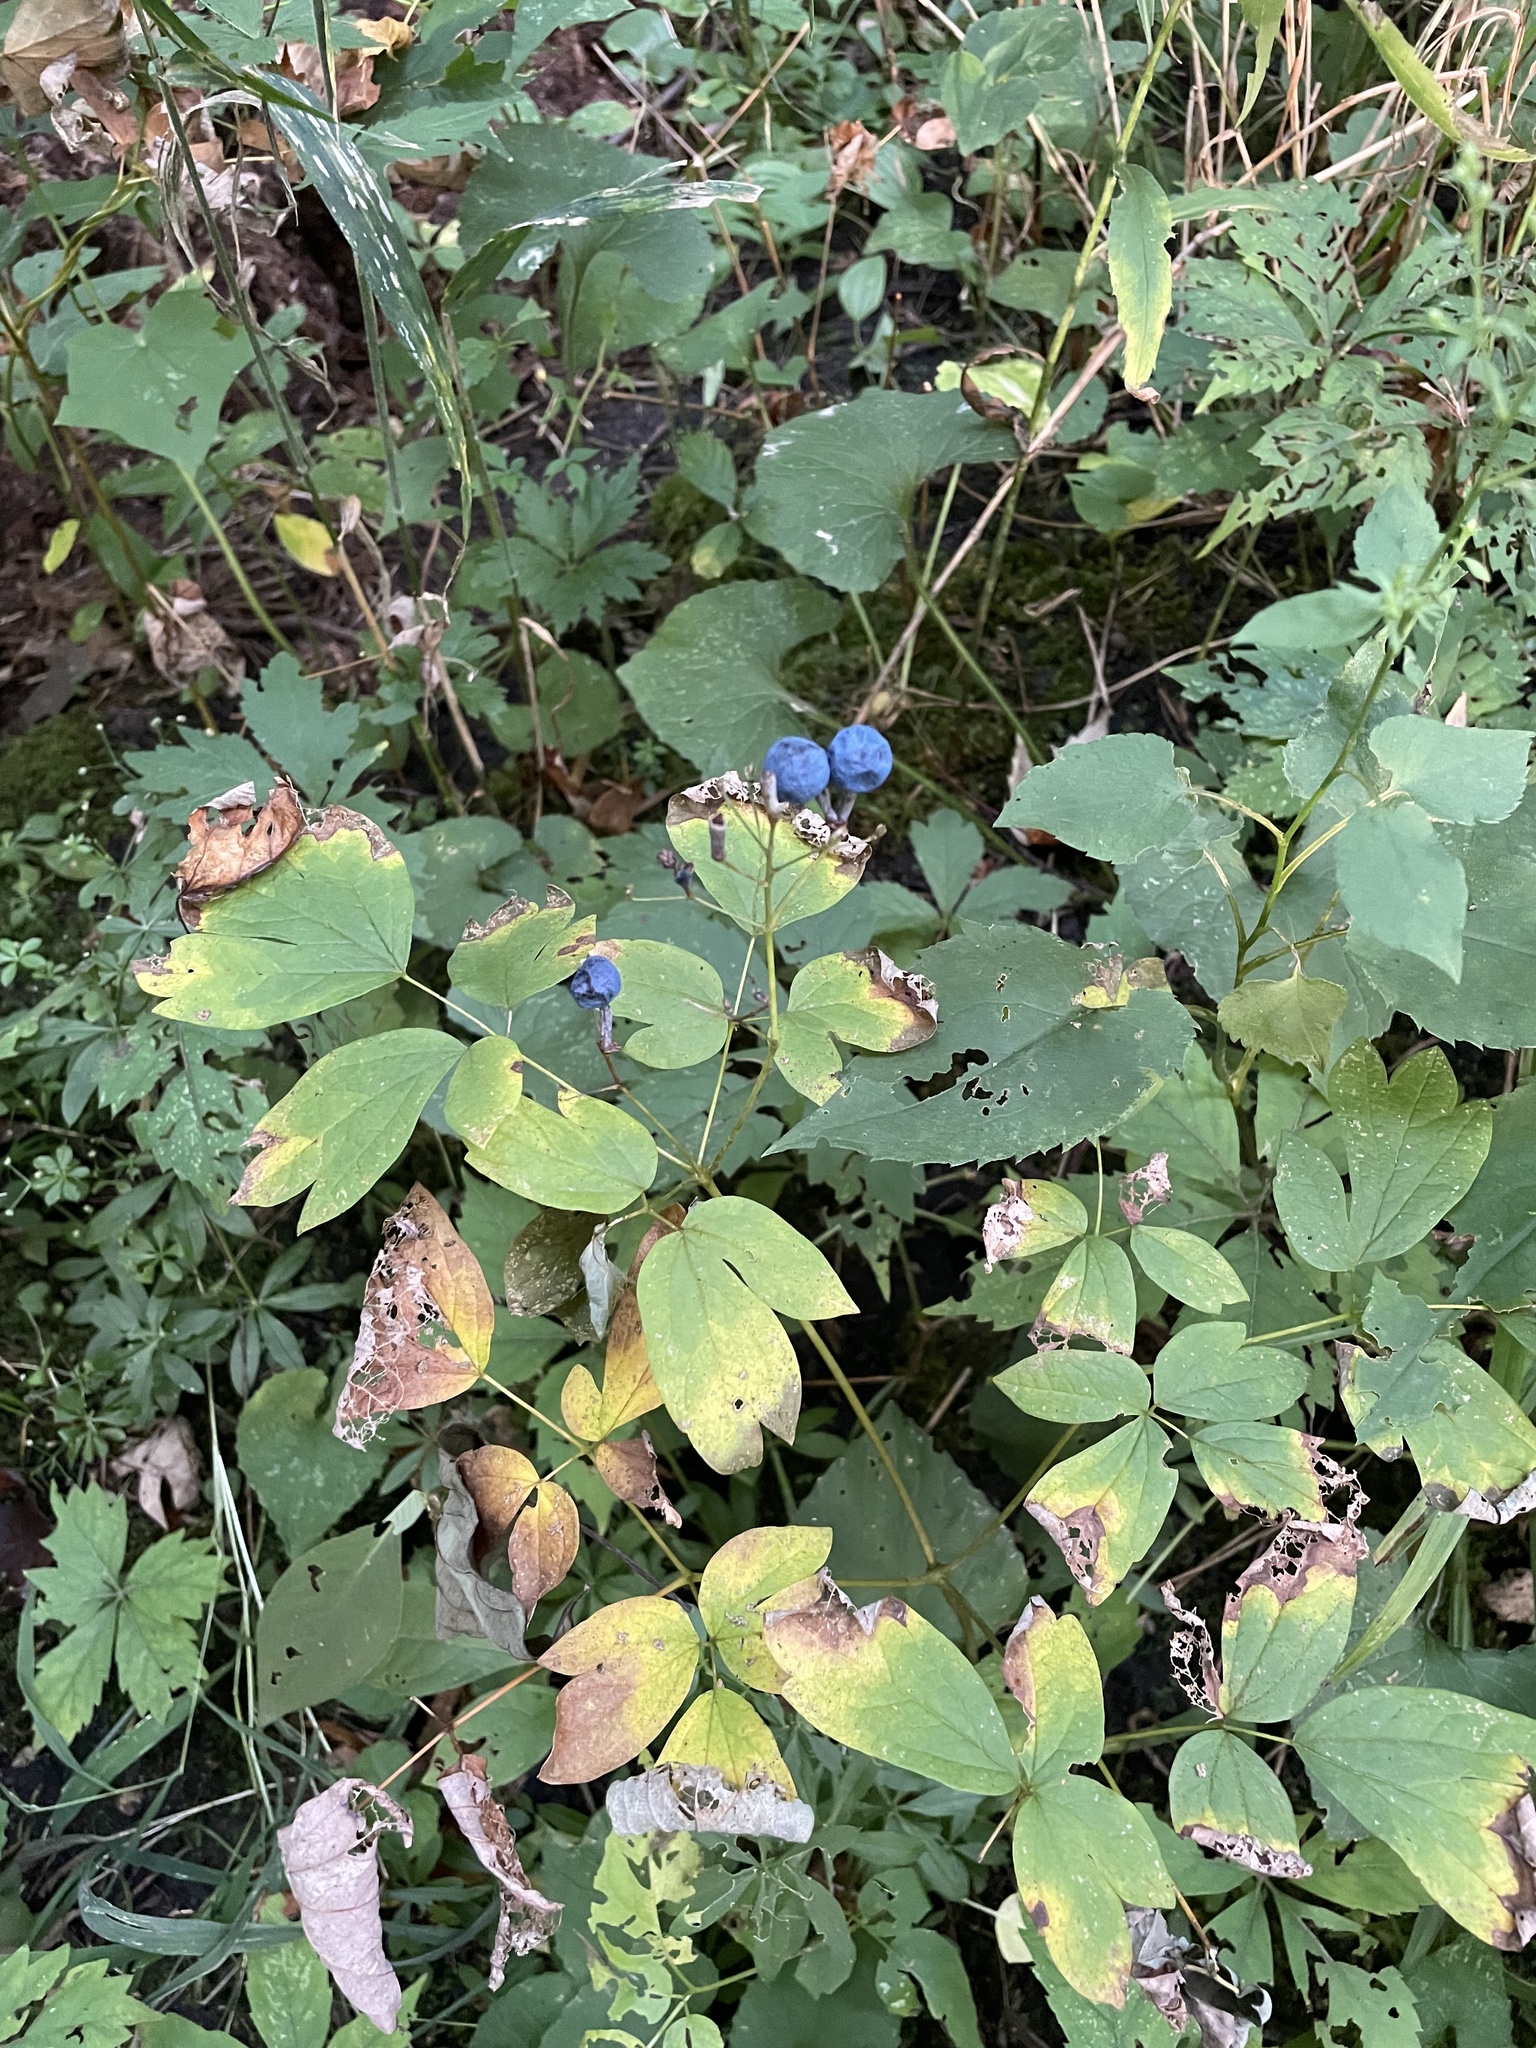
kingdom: Plantae
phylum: Tracheophyta
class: Magnoliopsida
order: Ranunculales
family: Berberidaceae
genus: Caulophyllum
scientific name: Caulophyllum thalictroides
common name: Blue cohosh
